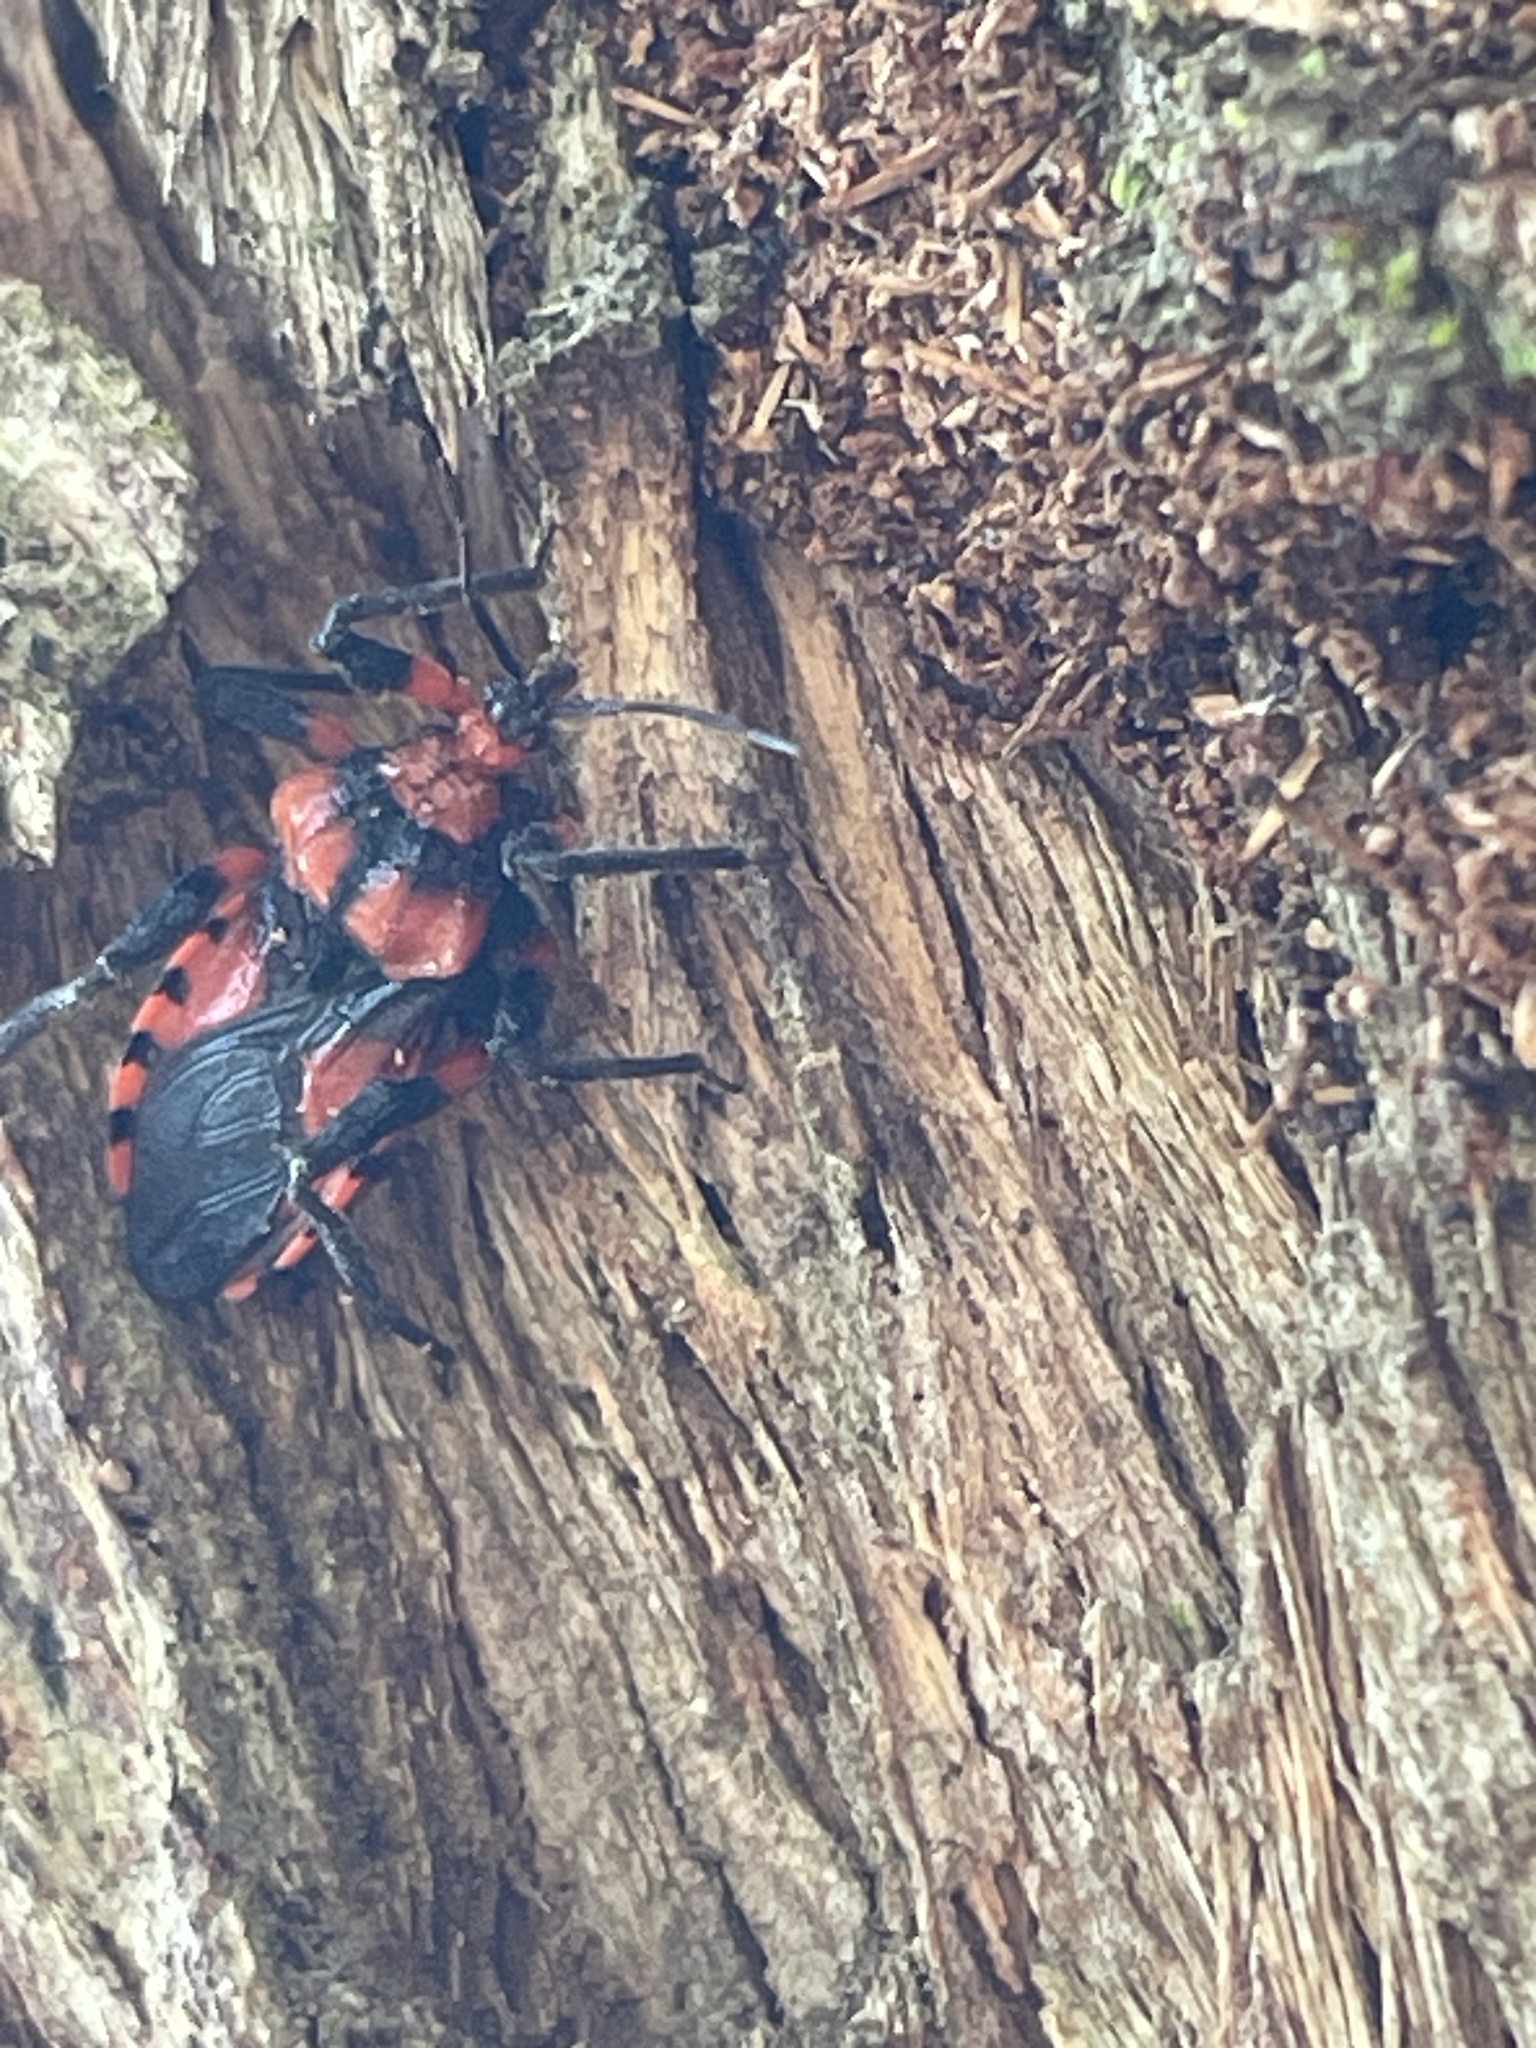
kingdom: Animalia
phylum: Arthropoda
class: Insecta
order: Hemiptera
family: Reduviidae
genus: Tegea
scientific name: Tegea atropicta
